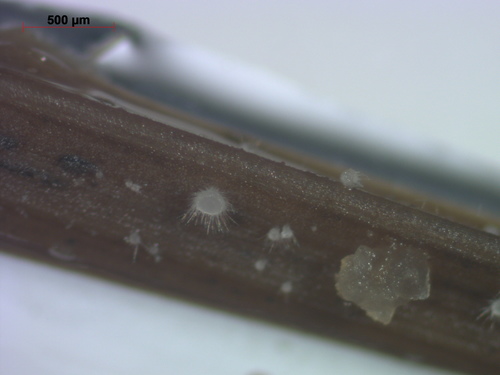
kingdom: Fungi
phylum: Ascomycota
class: Leotiomycetes
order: Helotiales
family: Hyaloscyphaceae
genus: Hyaloscypha
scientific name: Hyaloscypha
